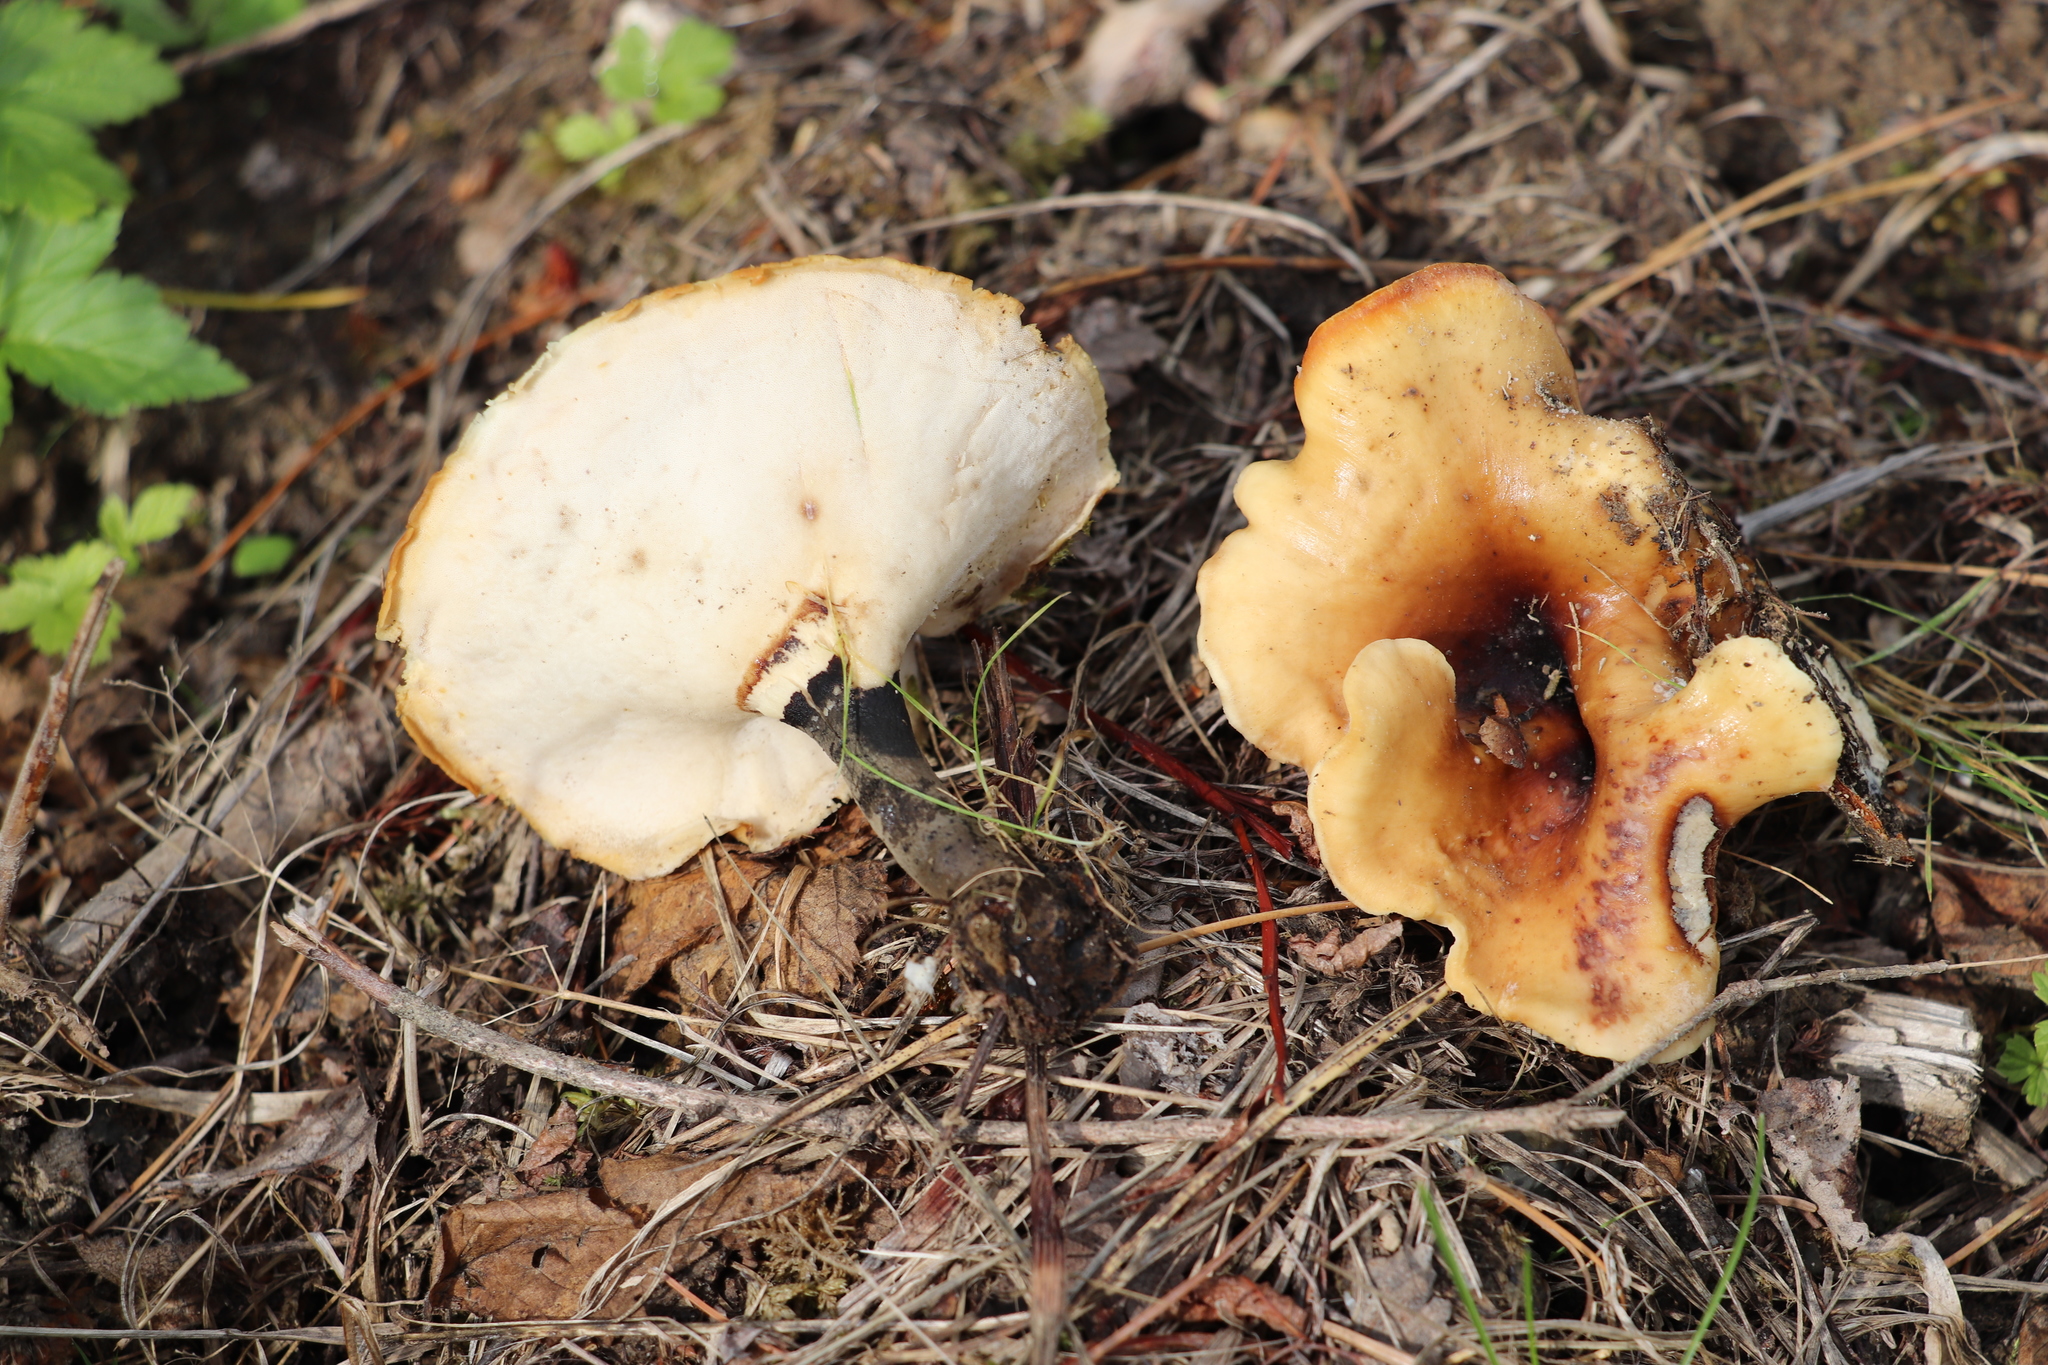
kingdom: Fungi
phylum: Basidiomycota
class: Agaricomycetes
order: Polyporales
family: Polyporaceae
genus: Picipes
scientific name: Picipes badius
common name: Bay polypore
